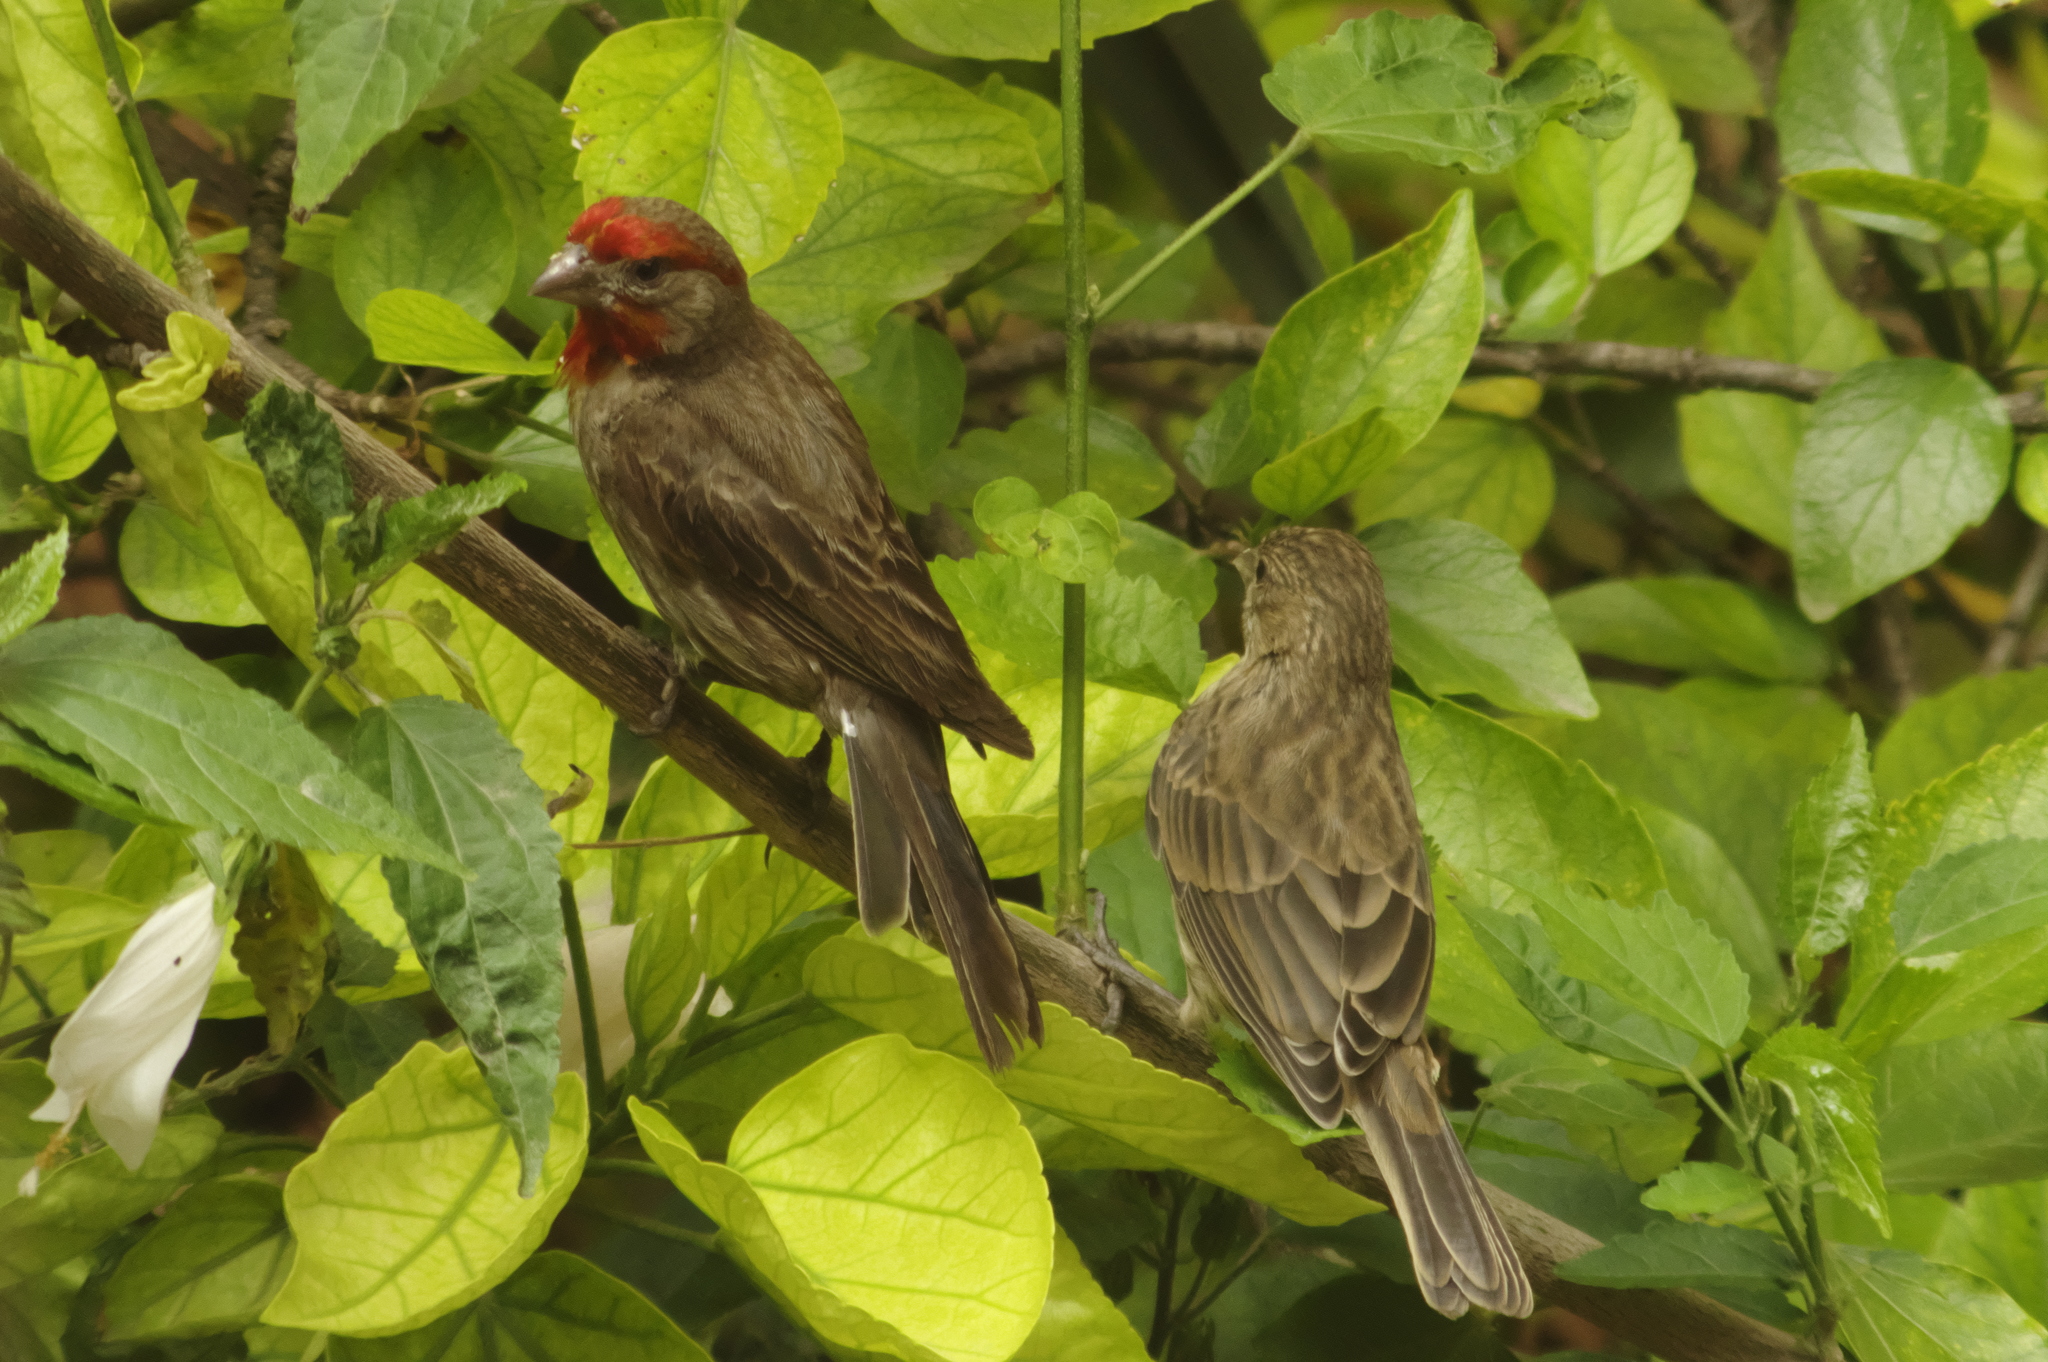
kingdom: Animalia
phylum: Chordata
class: Aves
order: Passeriformes
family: Fringillidae
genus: Haemorhous
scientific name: Haemorhous mexicanus
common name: House finch
